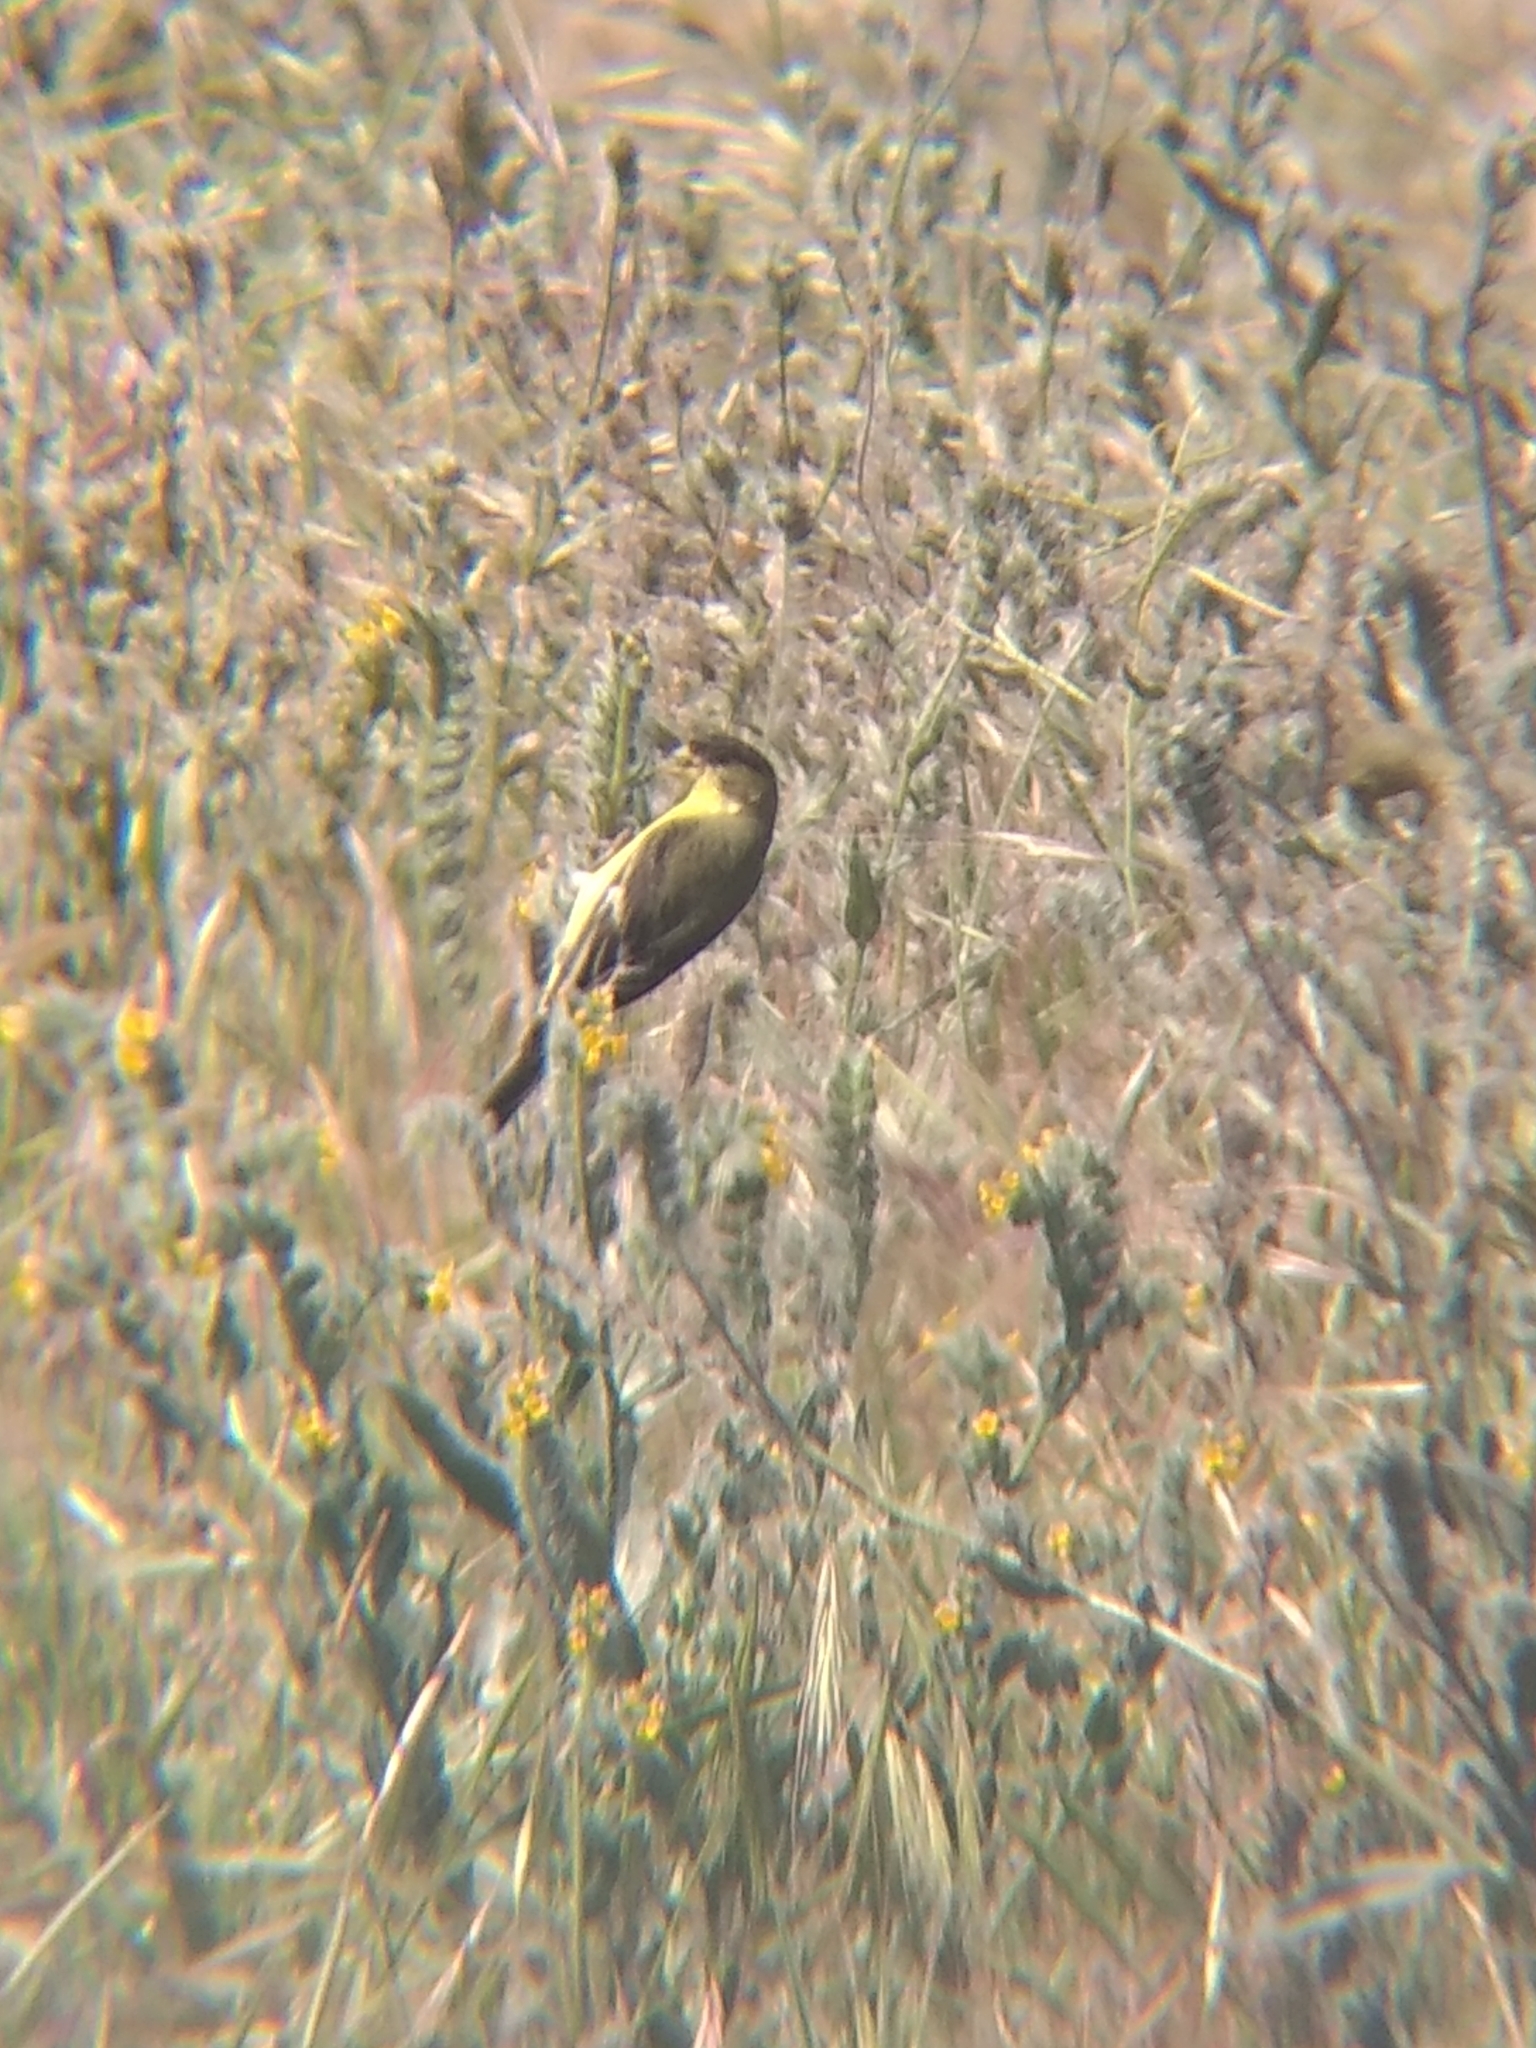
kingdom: Animalia
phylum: Chordata
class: Aves
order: Passeriformes
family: Fringillidae
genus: Spinus
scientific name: Spinus psaltria
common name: Lesser goldfinch
